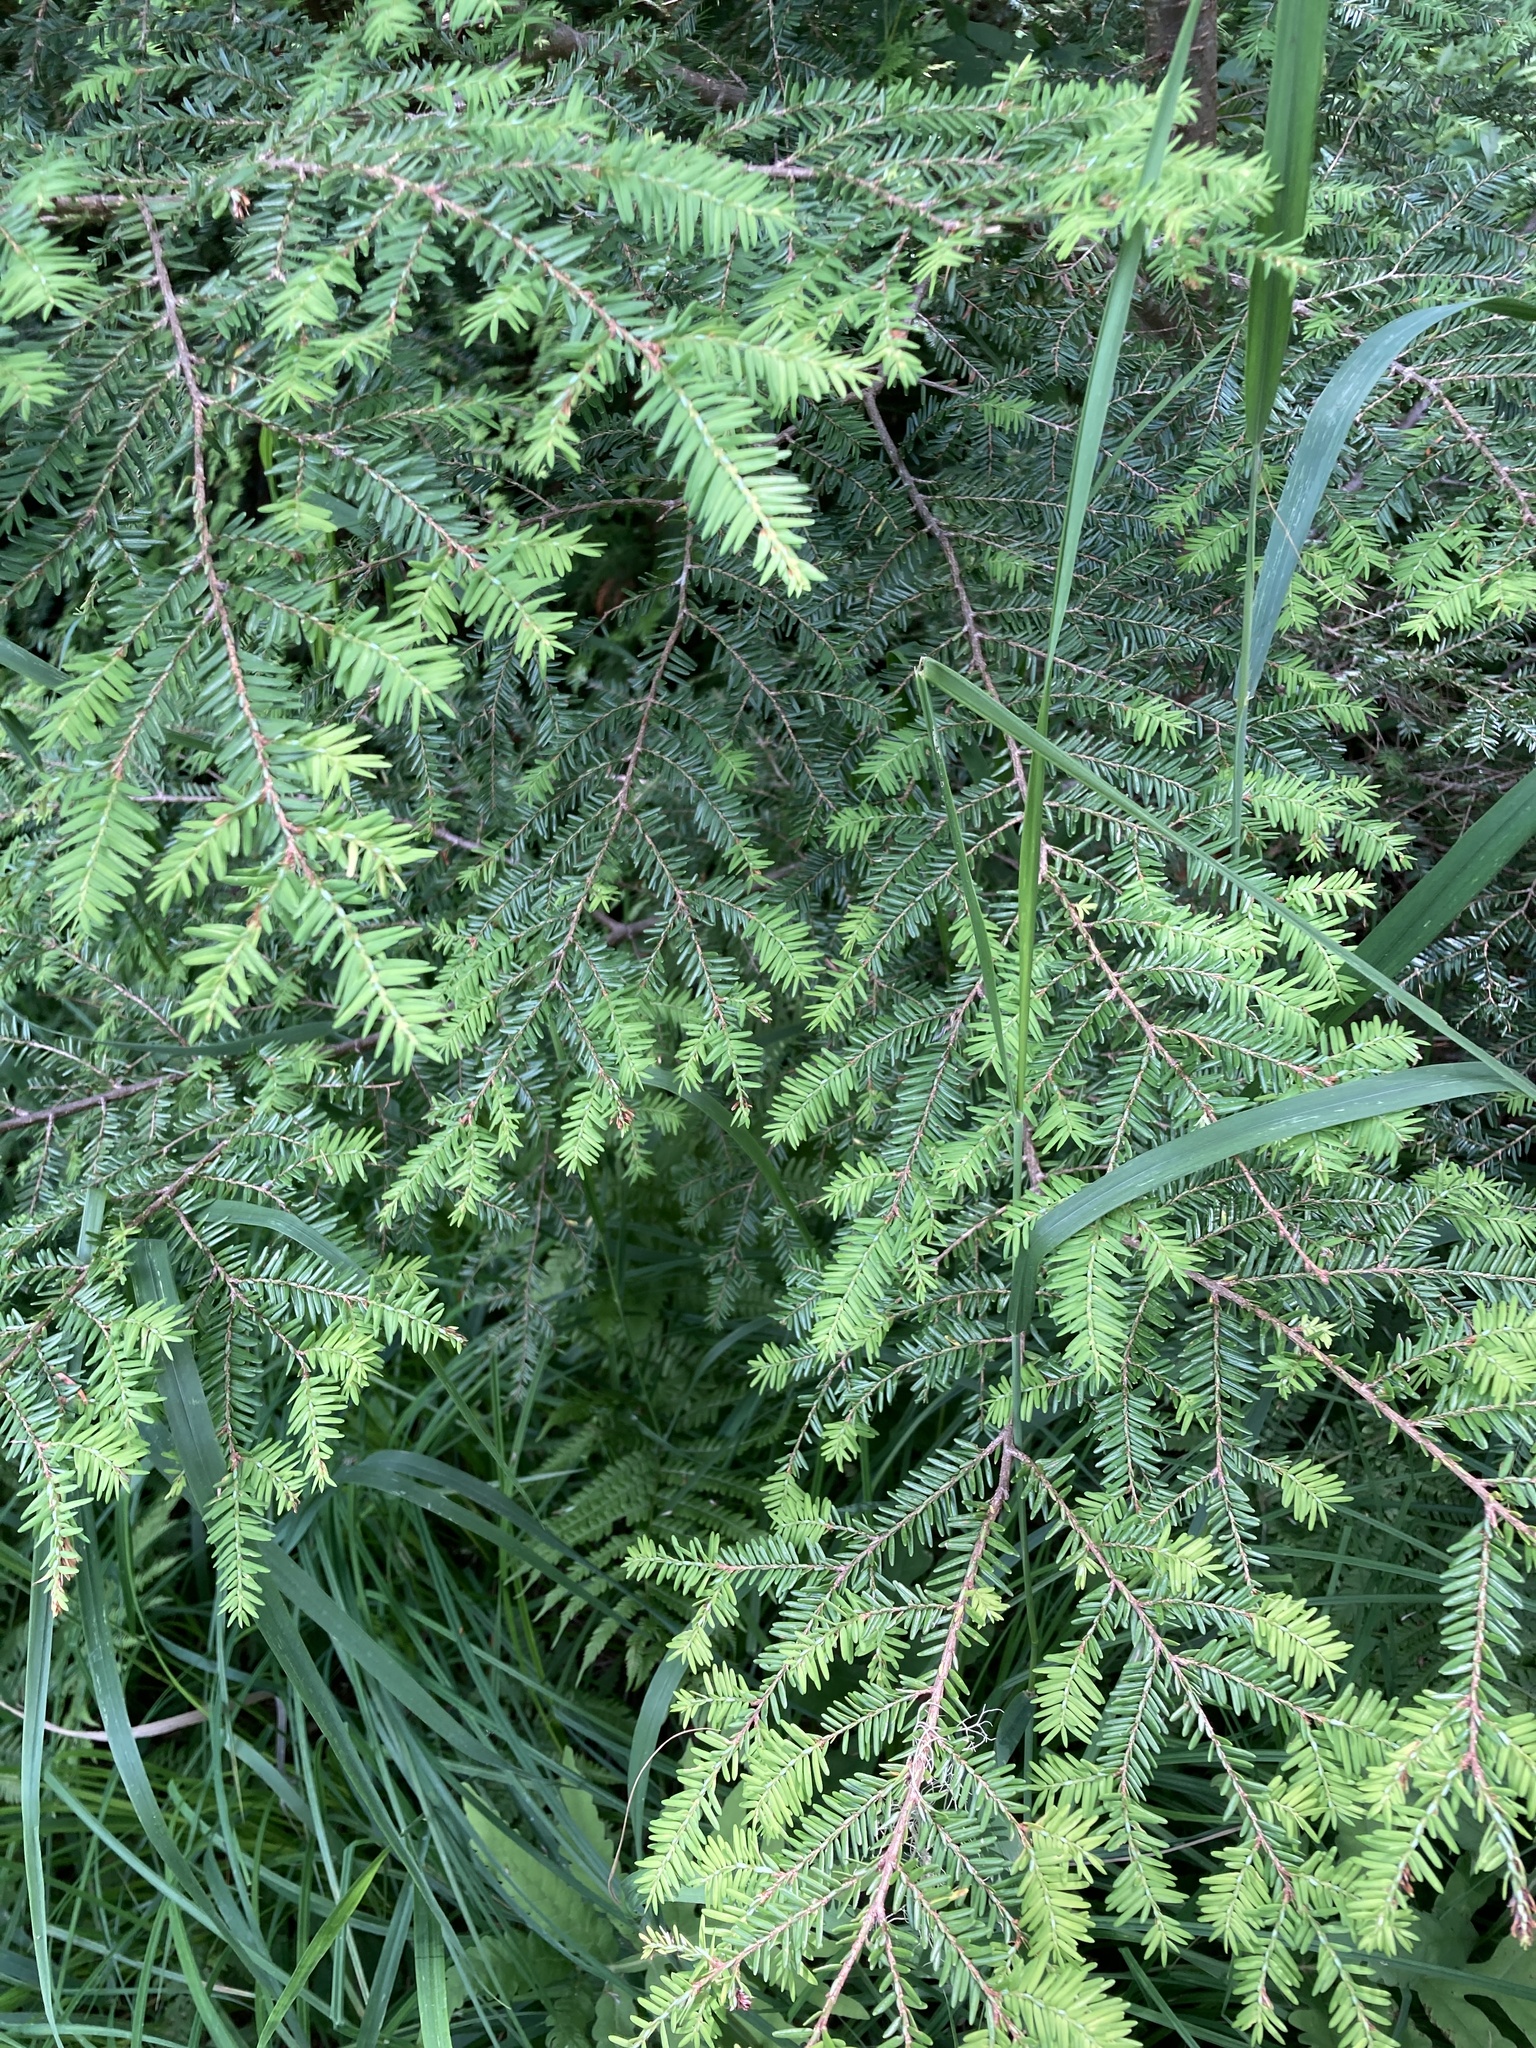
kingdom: Plantae
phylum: Tracheophyta
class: Pinopsida
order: Pinales
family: Pinaceae
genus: Tsuga
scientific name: Tsuga canadensis
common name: Eastern hemlock
